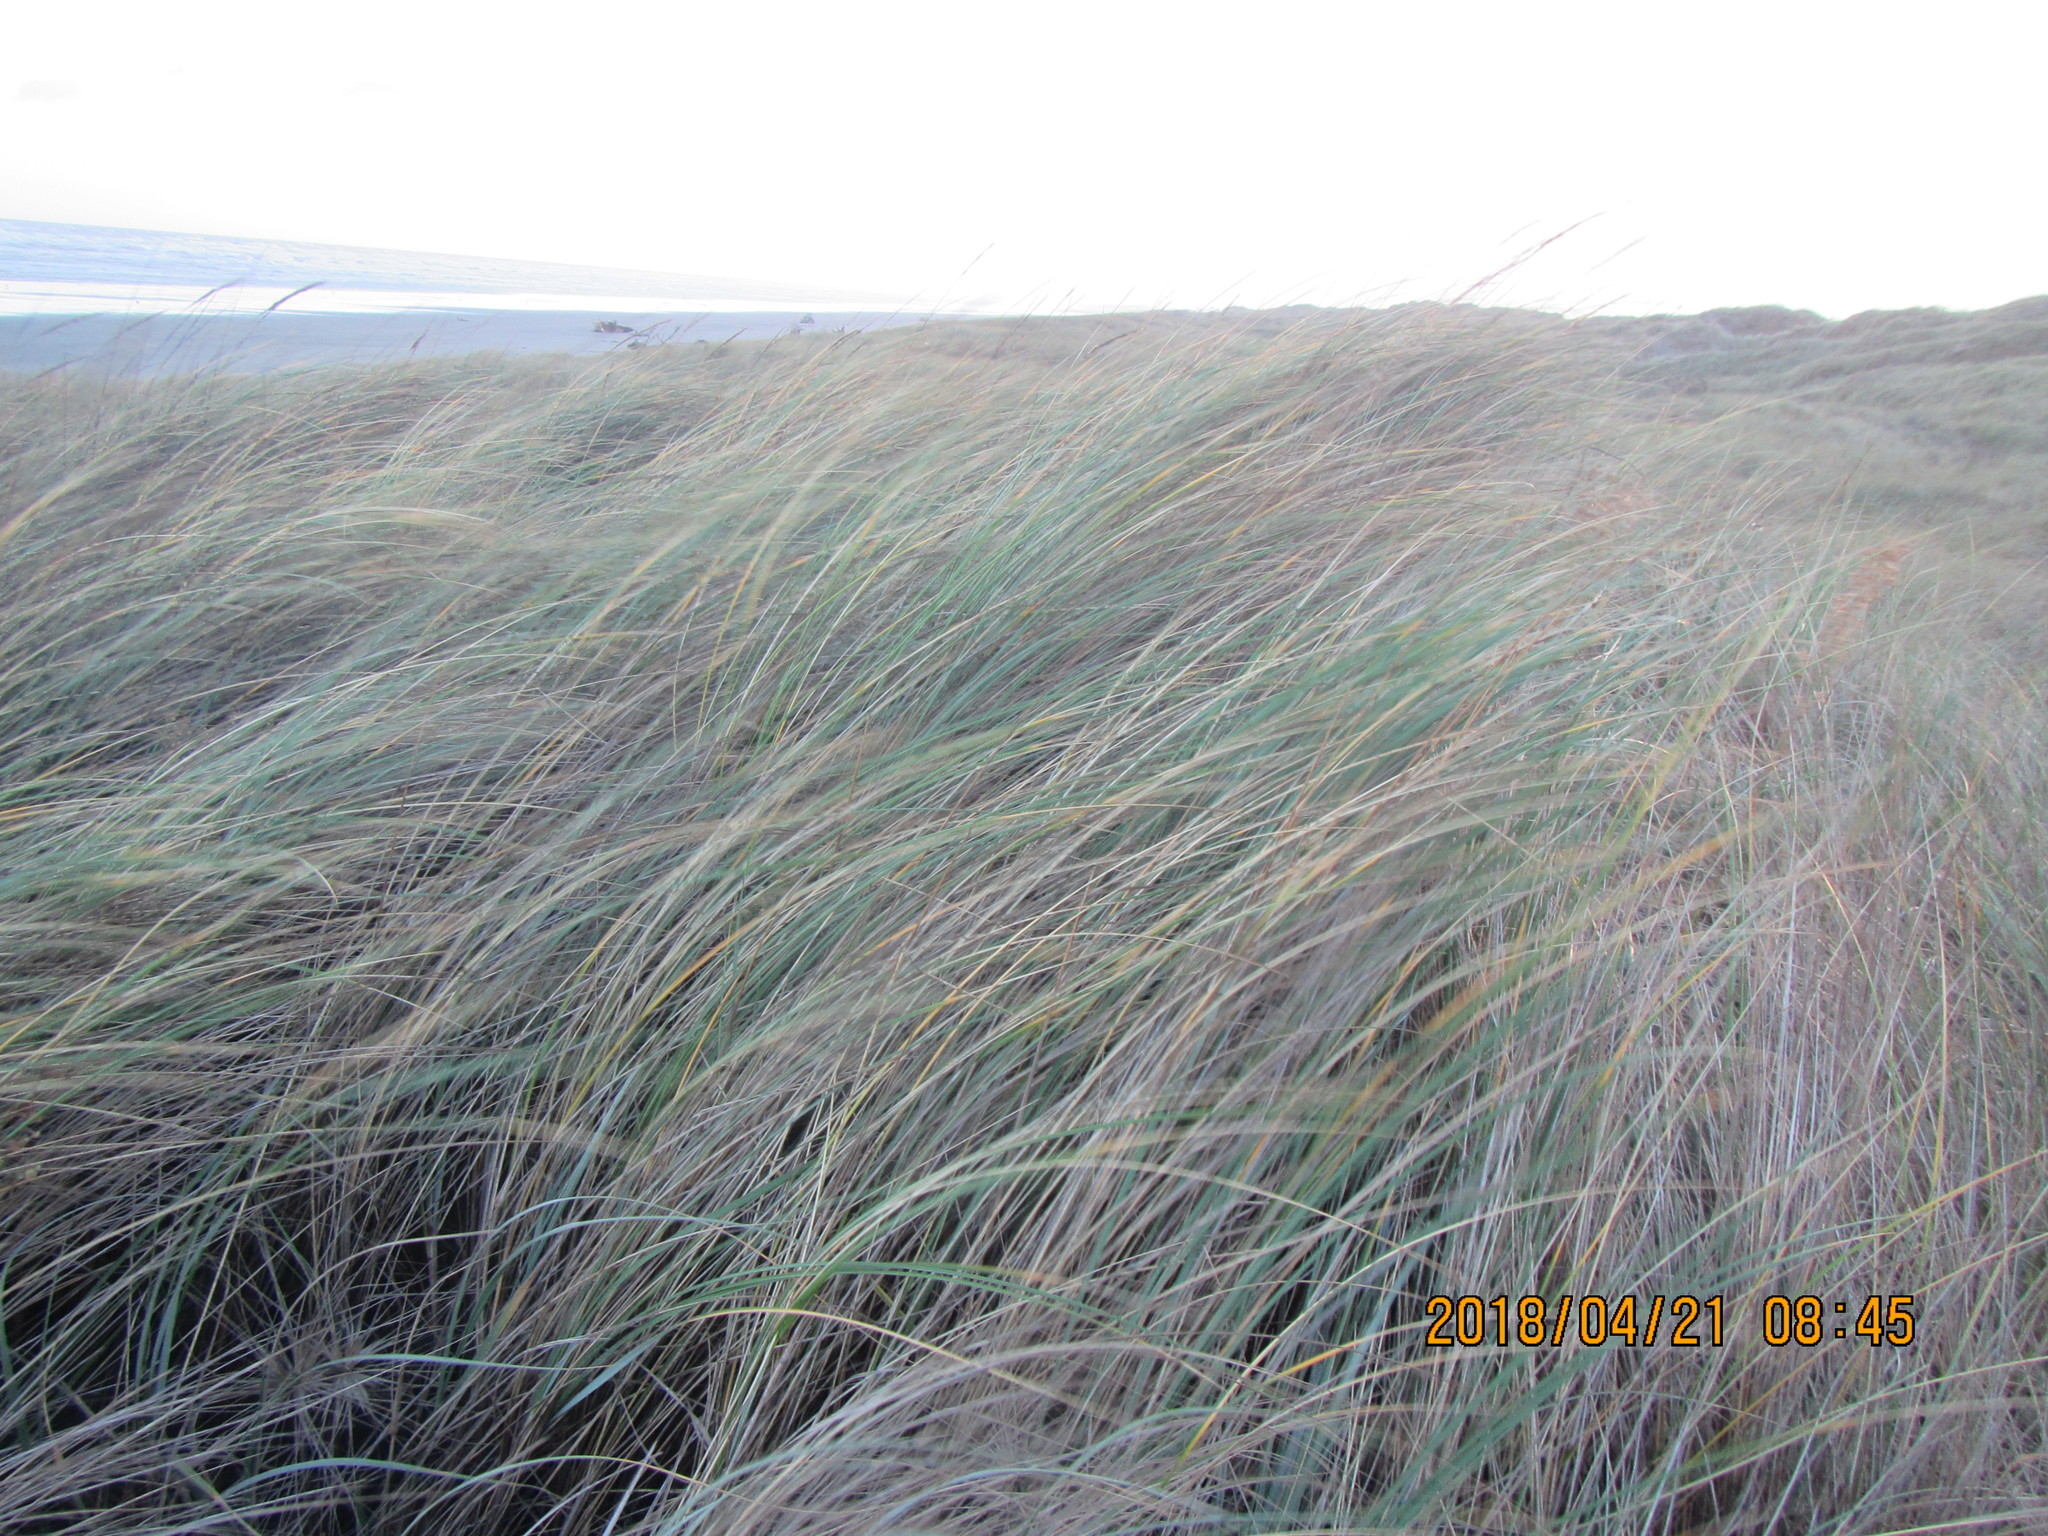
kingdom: Plantae
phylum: Tracheophyta
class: Liliopsida
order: Poales
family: Poaceae
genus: Calamagrostis
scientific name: Calamagrostis arenaria
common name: European beachgrass
